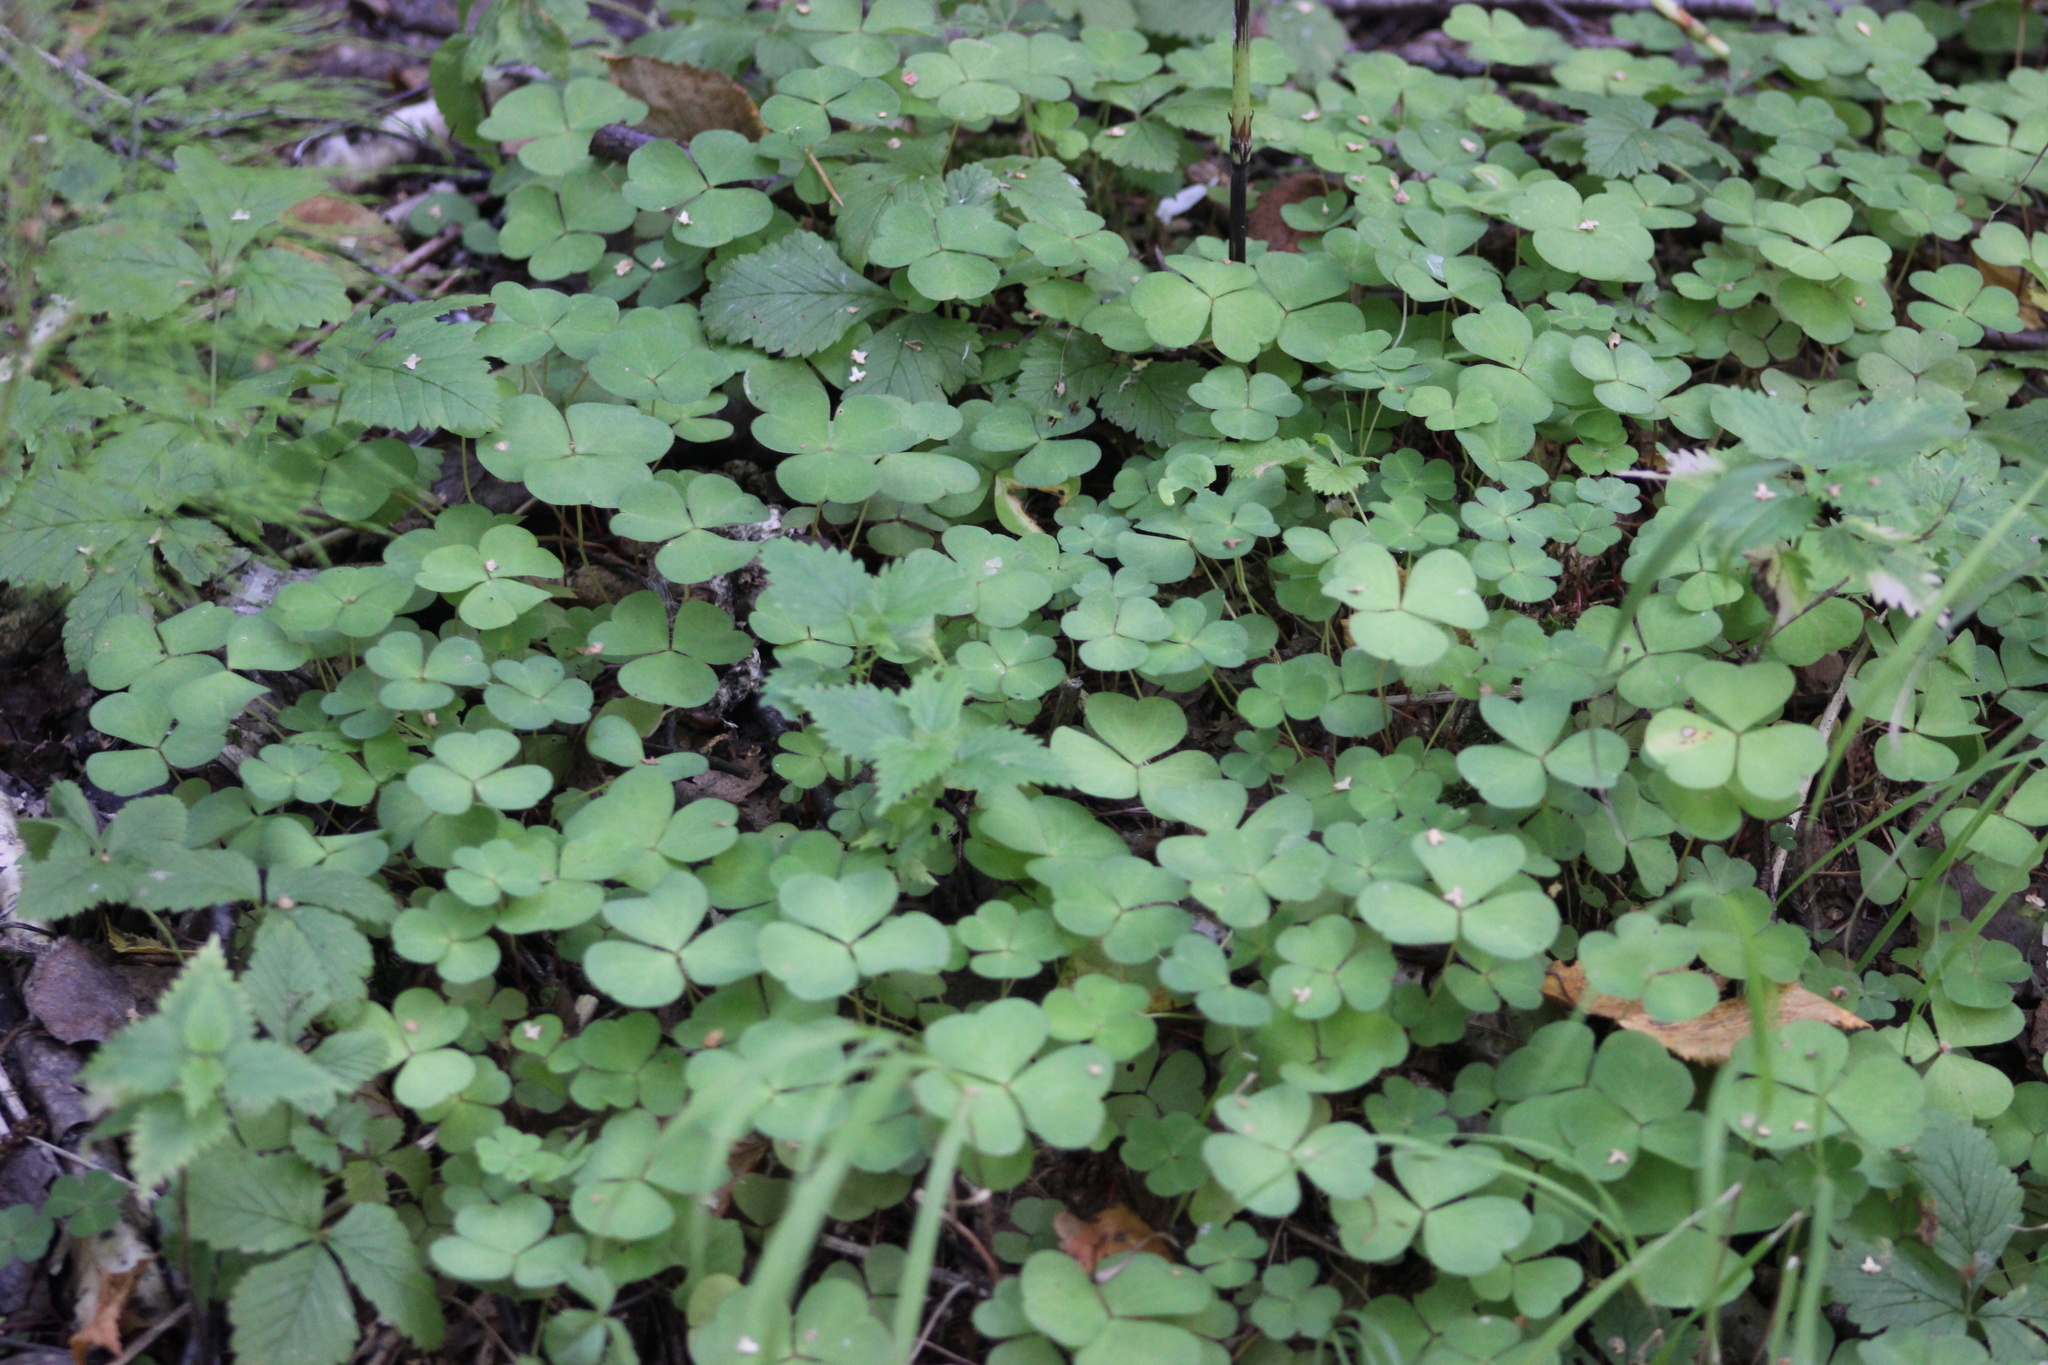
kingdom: Plantae
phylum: Tracheophyta
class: Magnoliopsida
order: Oxalidales
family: Oxalidaceae
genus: Oxalis
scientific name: Oxalis acetosella
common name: Wood-sorrel
